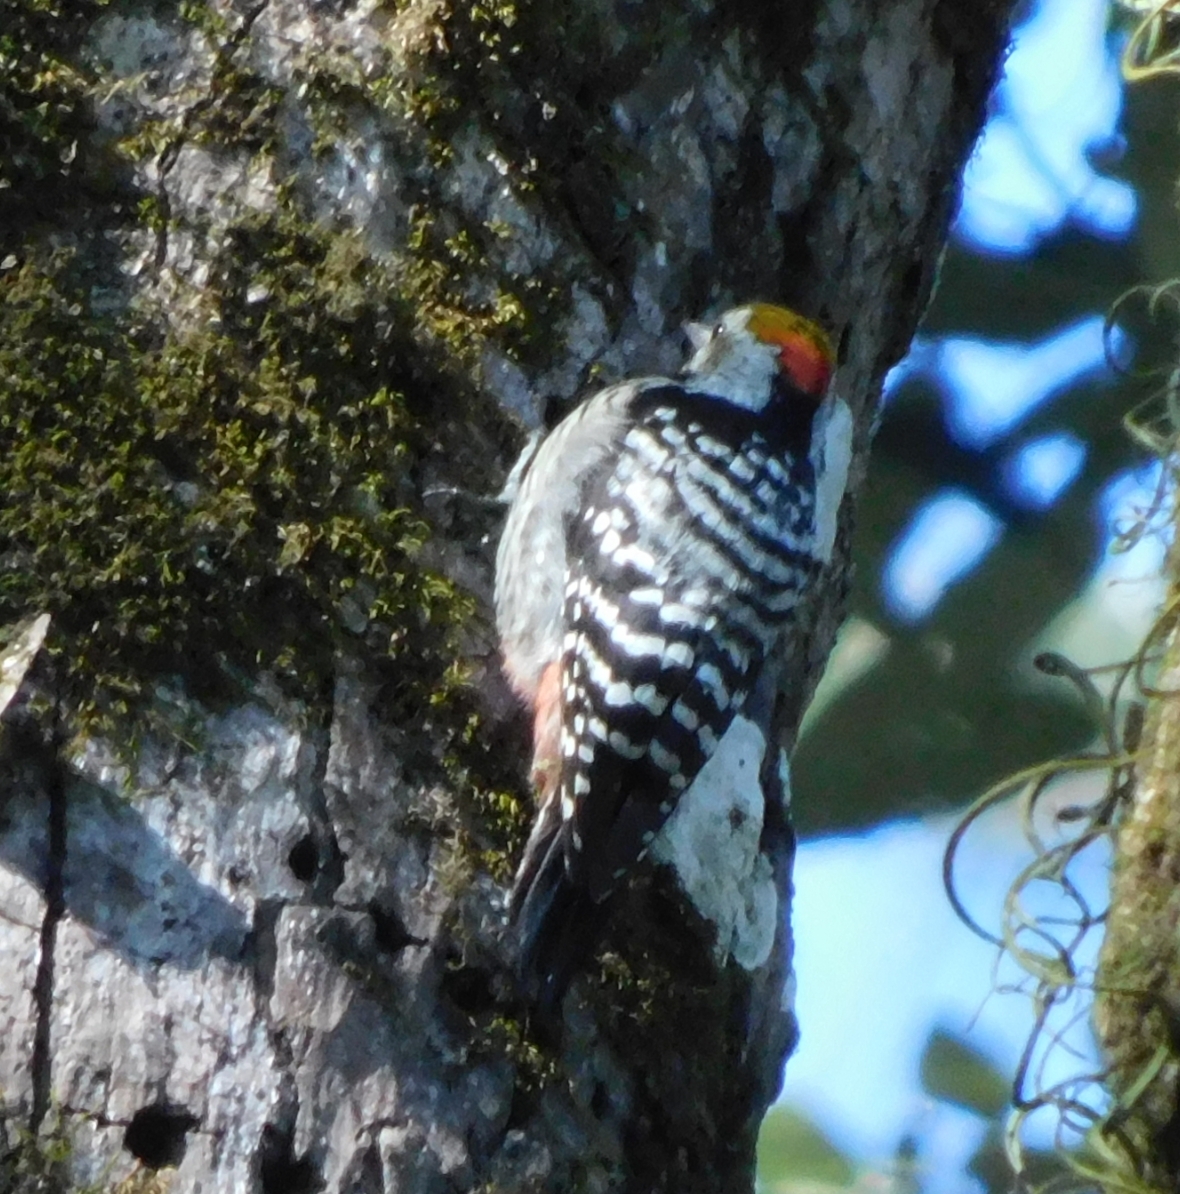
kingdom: Animalia
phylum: Chordata
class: Aves
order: Piciformes
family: Picidae
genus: Dendrocoptes
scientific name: Dendrocoptes auriceps
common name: Brown-fronted woodpecker
